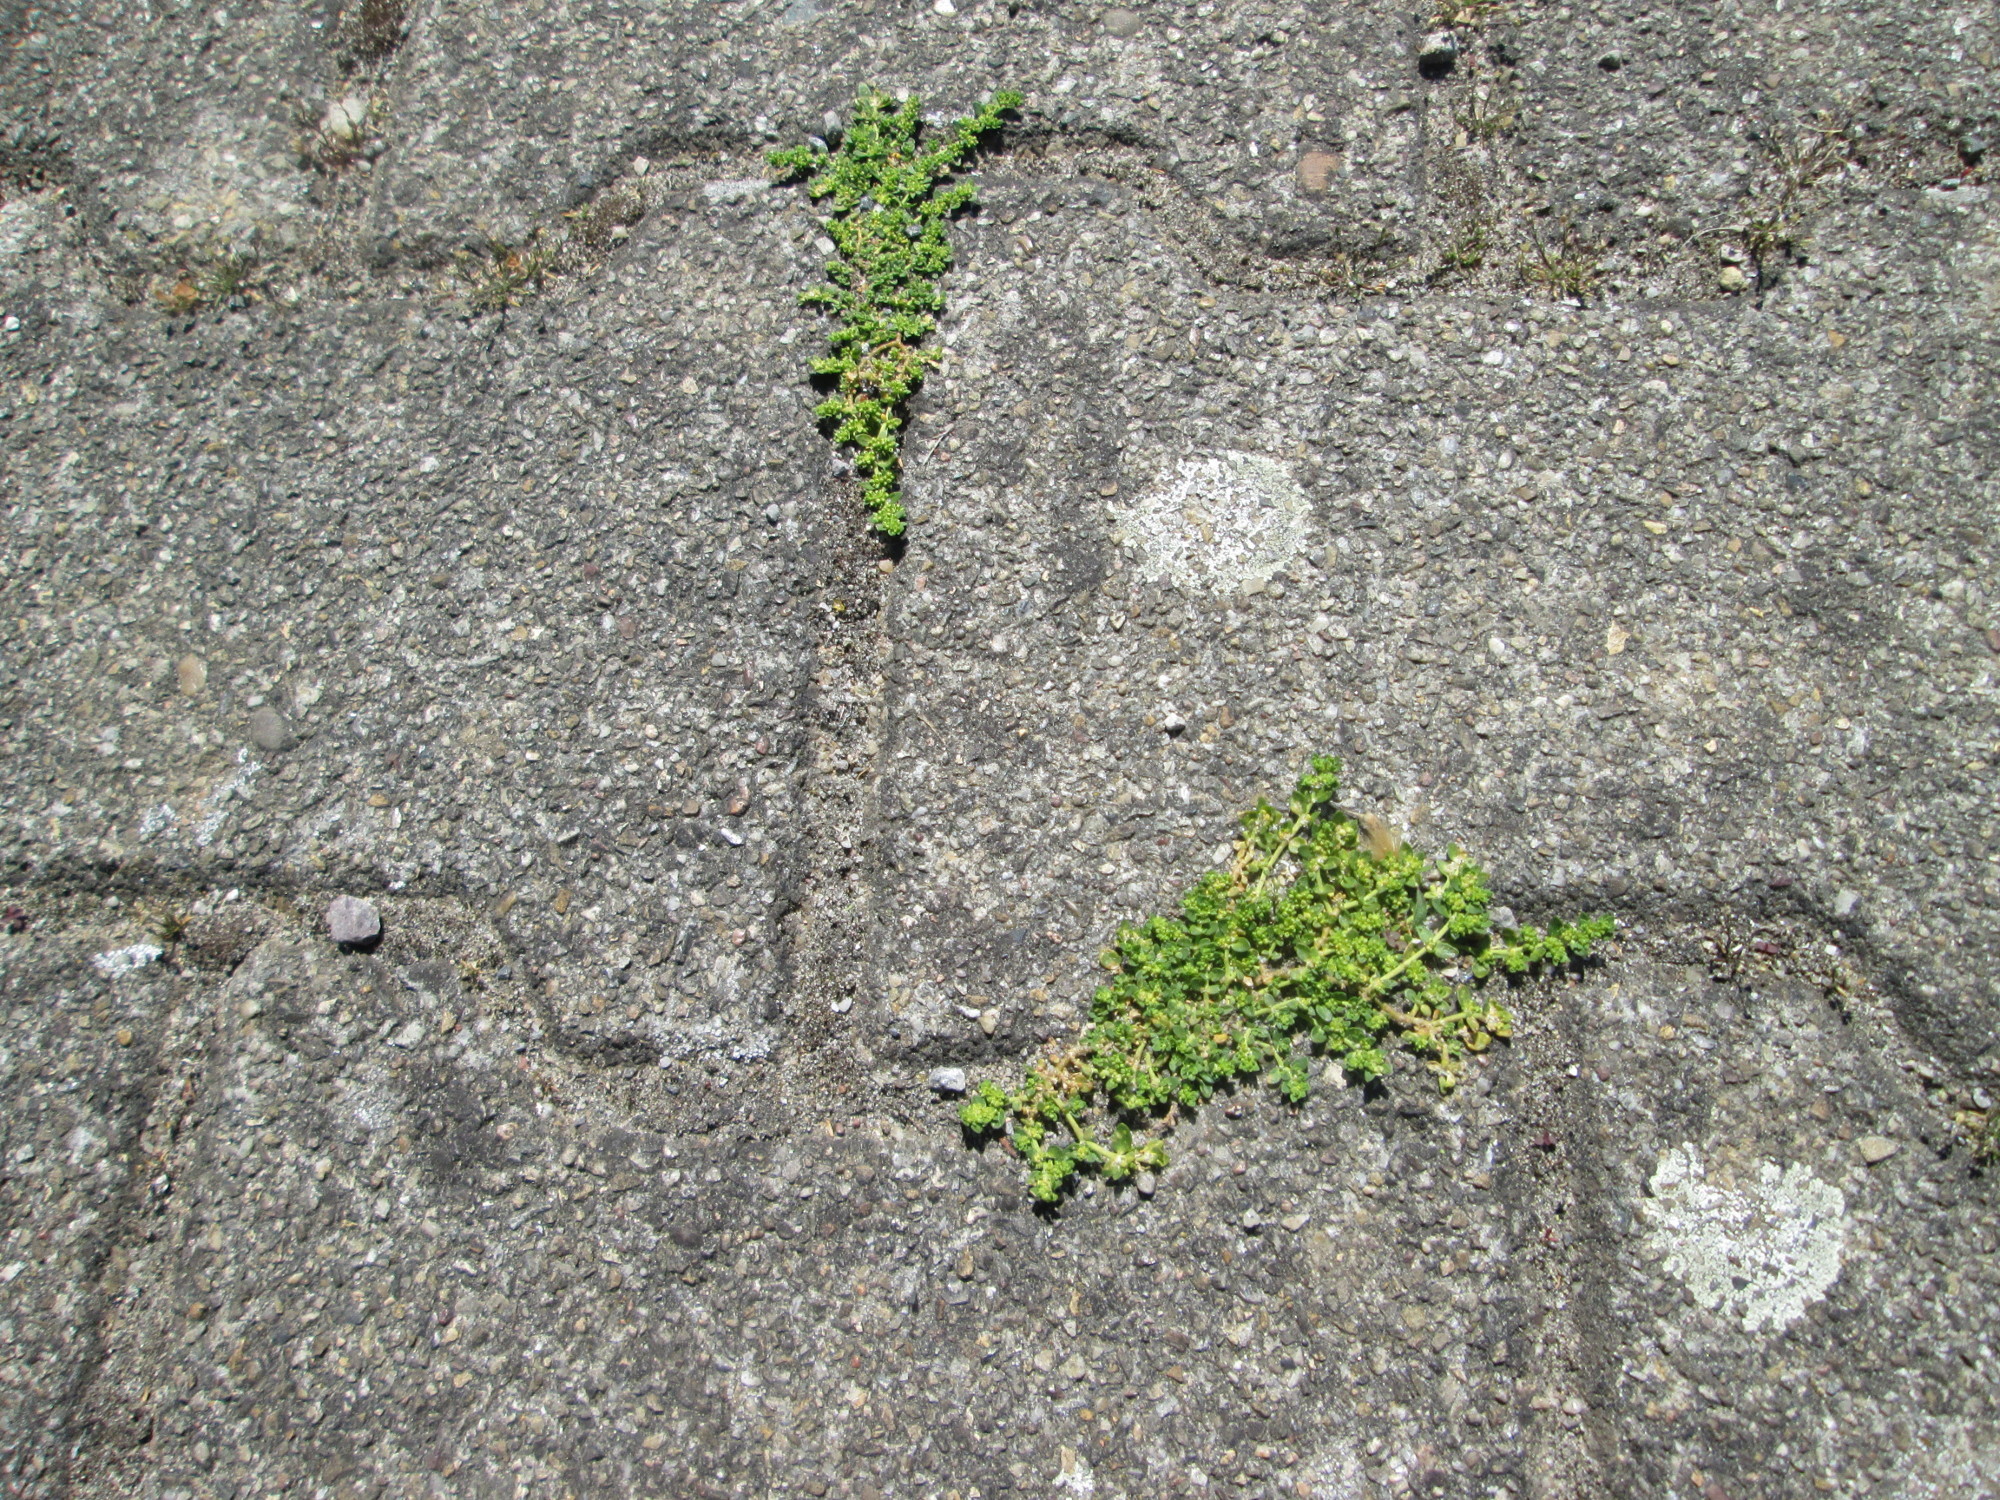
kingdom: Plantae
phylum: Tracheophyta
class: Magnoliopsida
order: Caryophyllales
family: Caryophyllaceae
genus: Herniaria
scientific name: Herniaria glabra
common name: Smooth rupturewort
